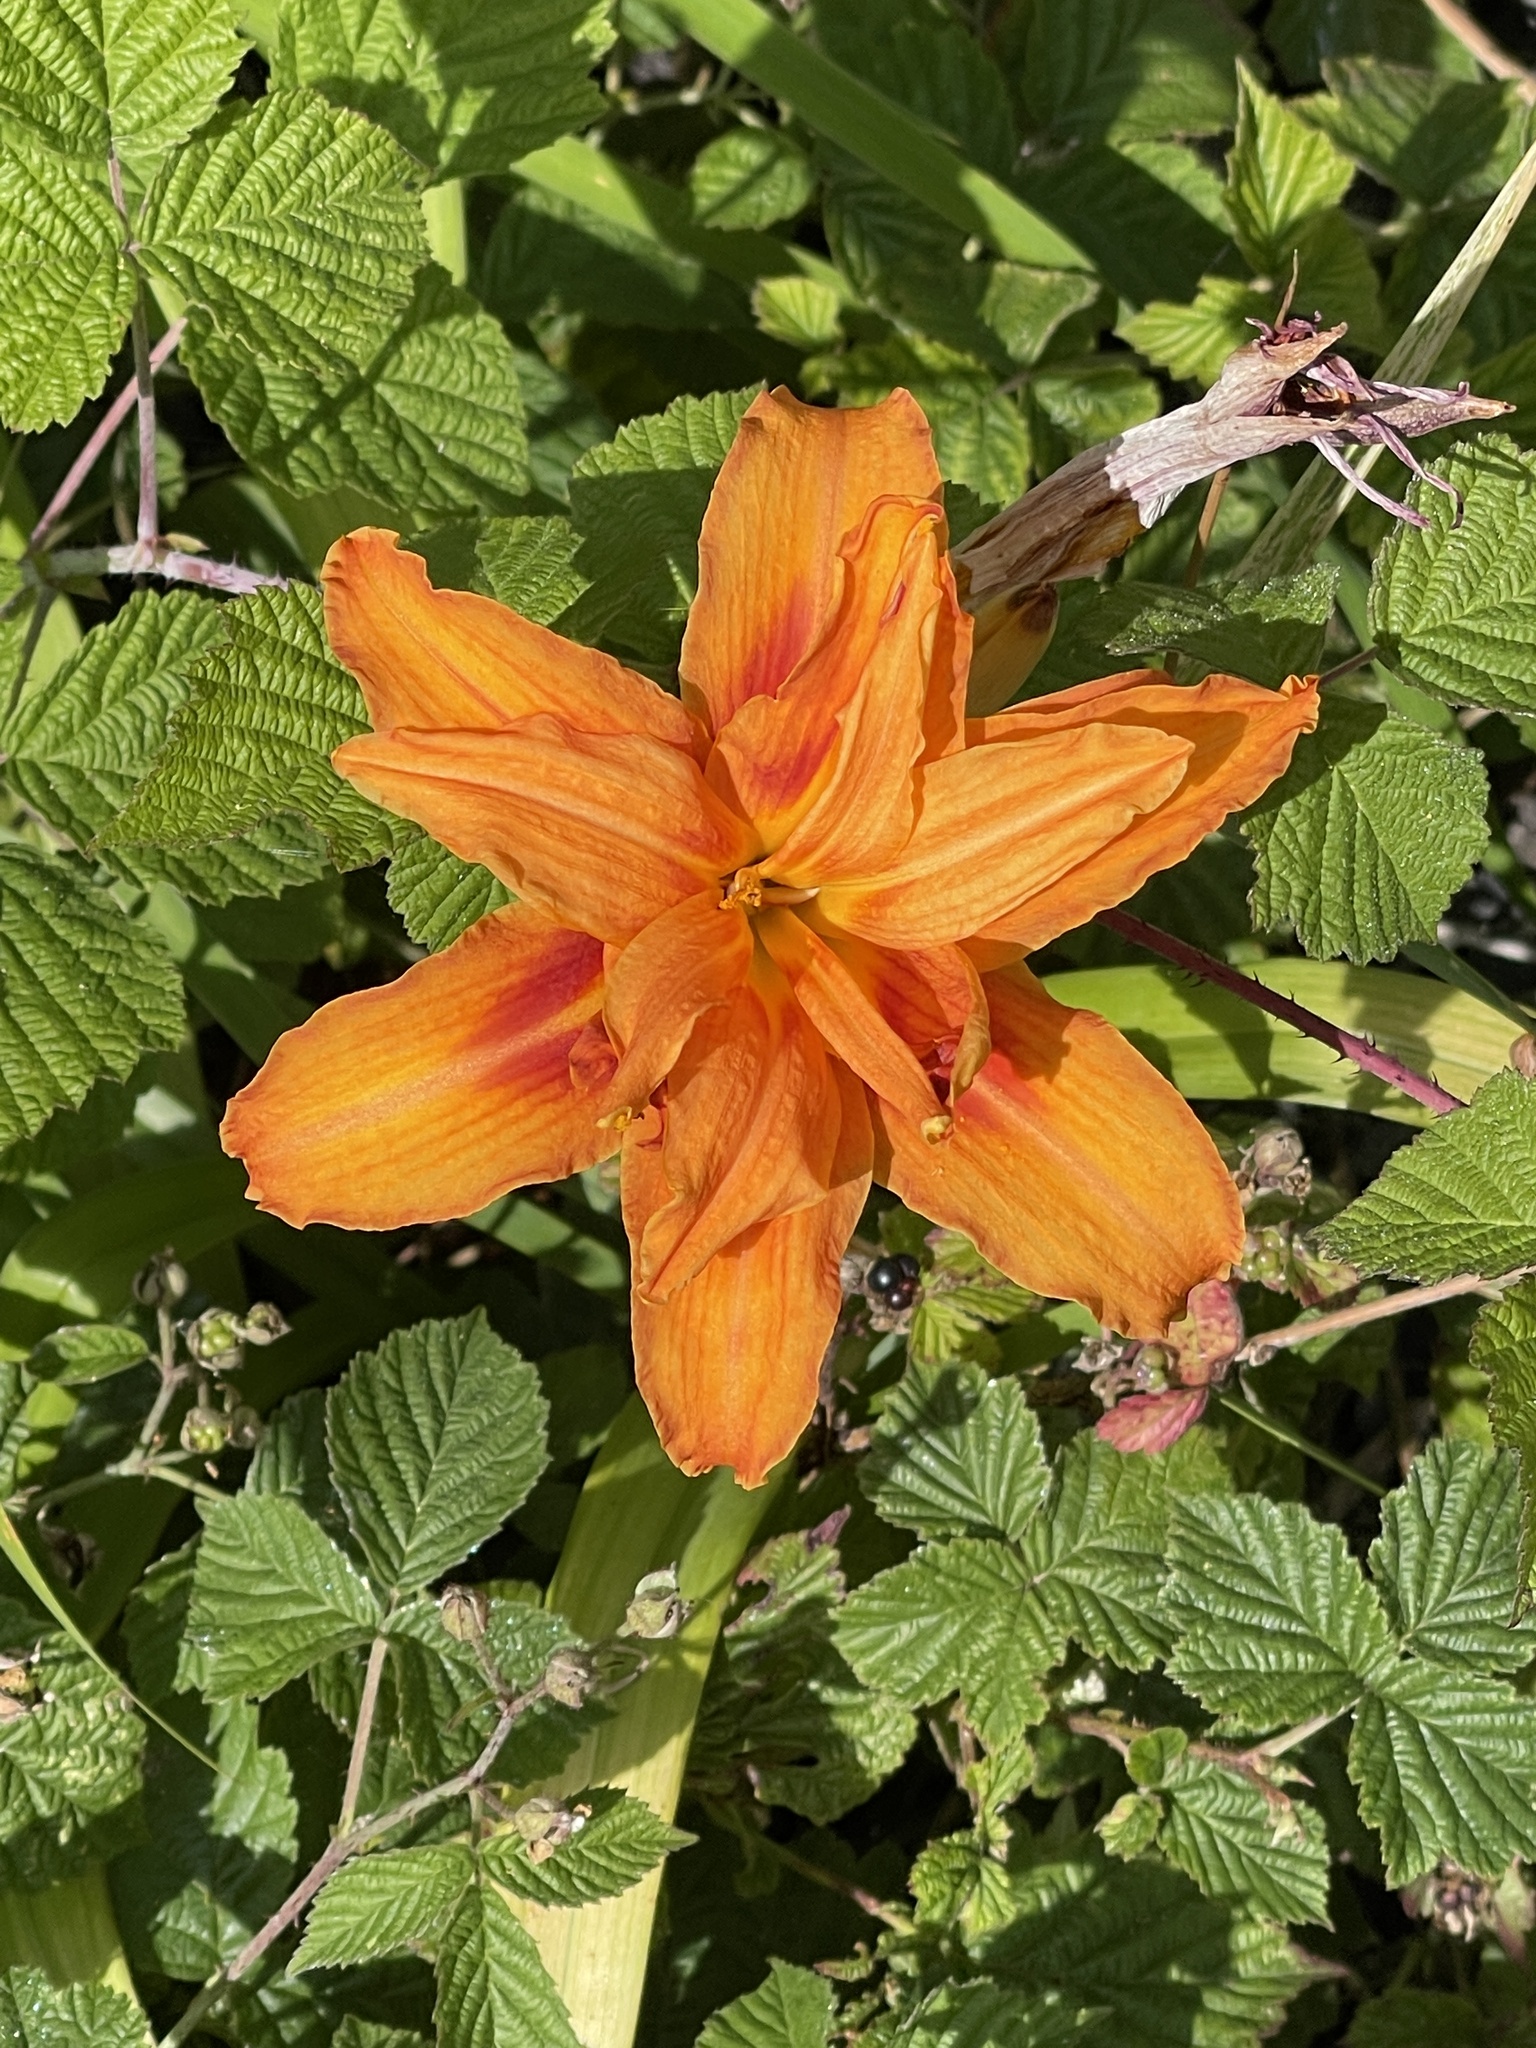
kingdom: Plantae
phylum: Tracheophyta
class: Liliopsida
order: Asparagales
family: Asphodelaceae
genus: Hemerocallis
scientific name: Hemerocallis fulva
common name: Orange day-lily
